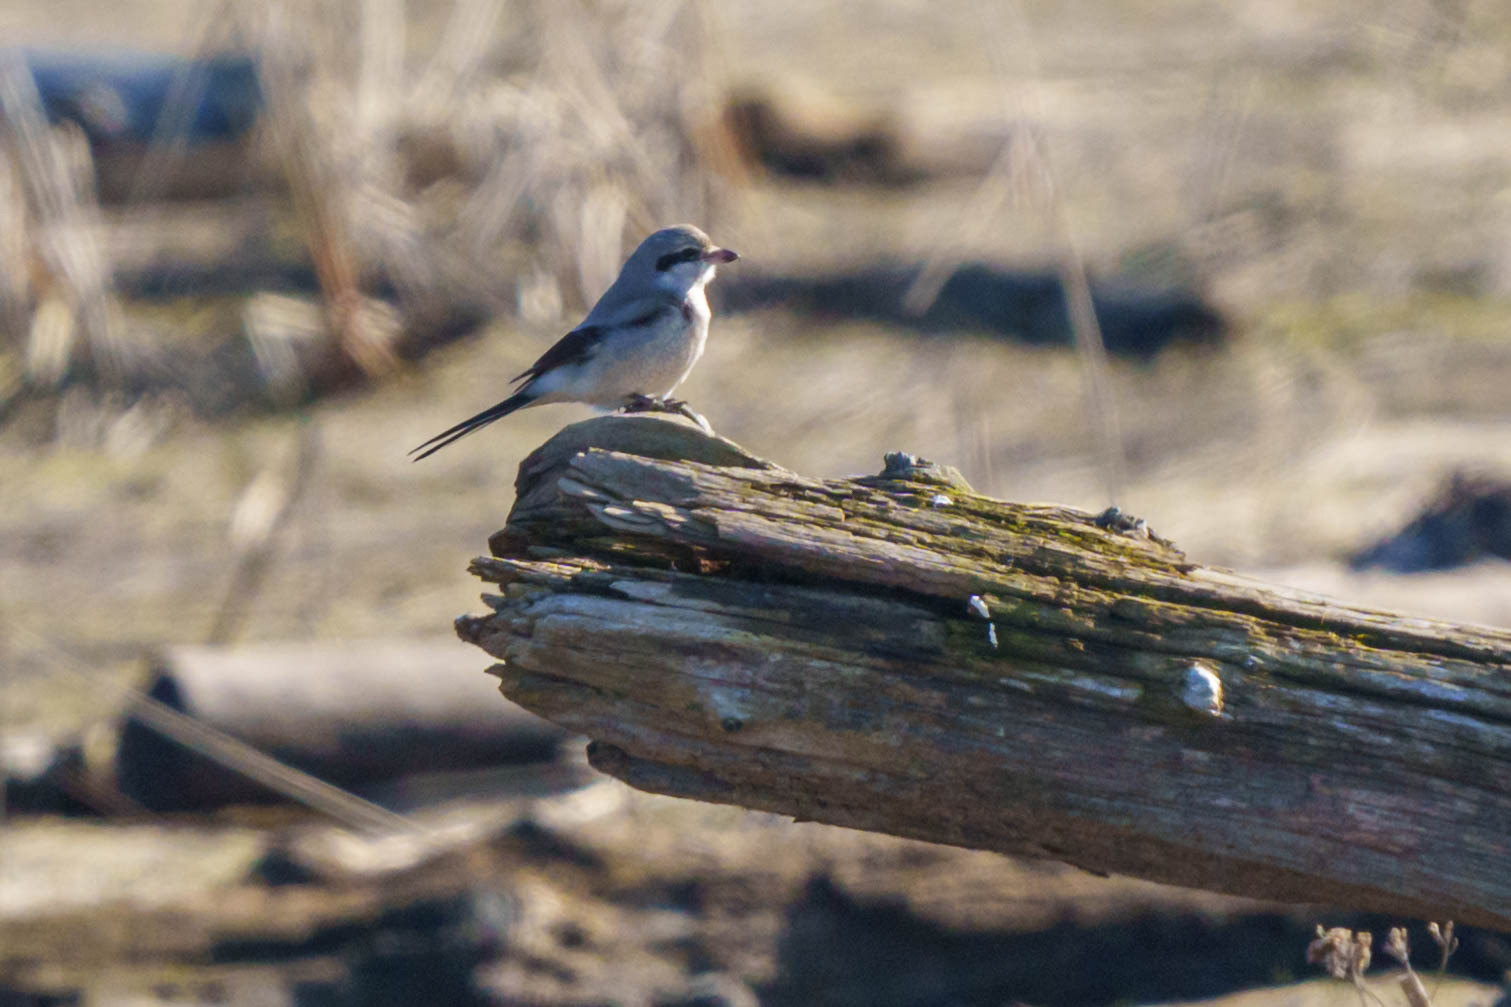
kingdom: Animalia
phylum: Chordata
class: Aves
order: Passeriformes
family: Laniidae
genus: Lanius
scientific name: Lanius borealis
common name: Northern shrike
